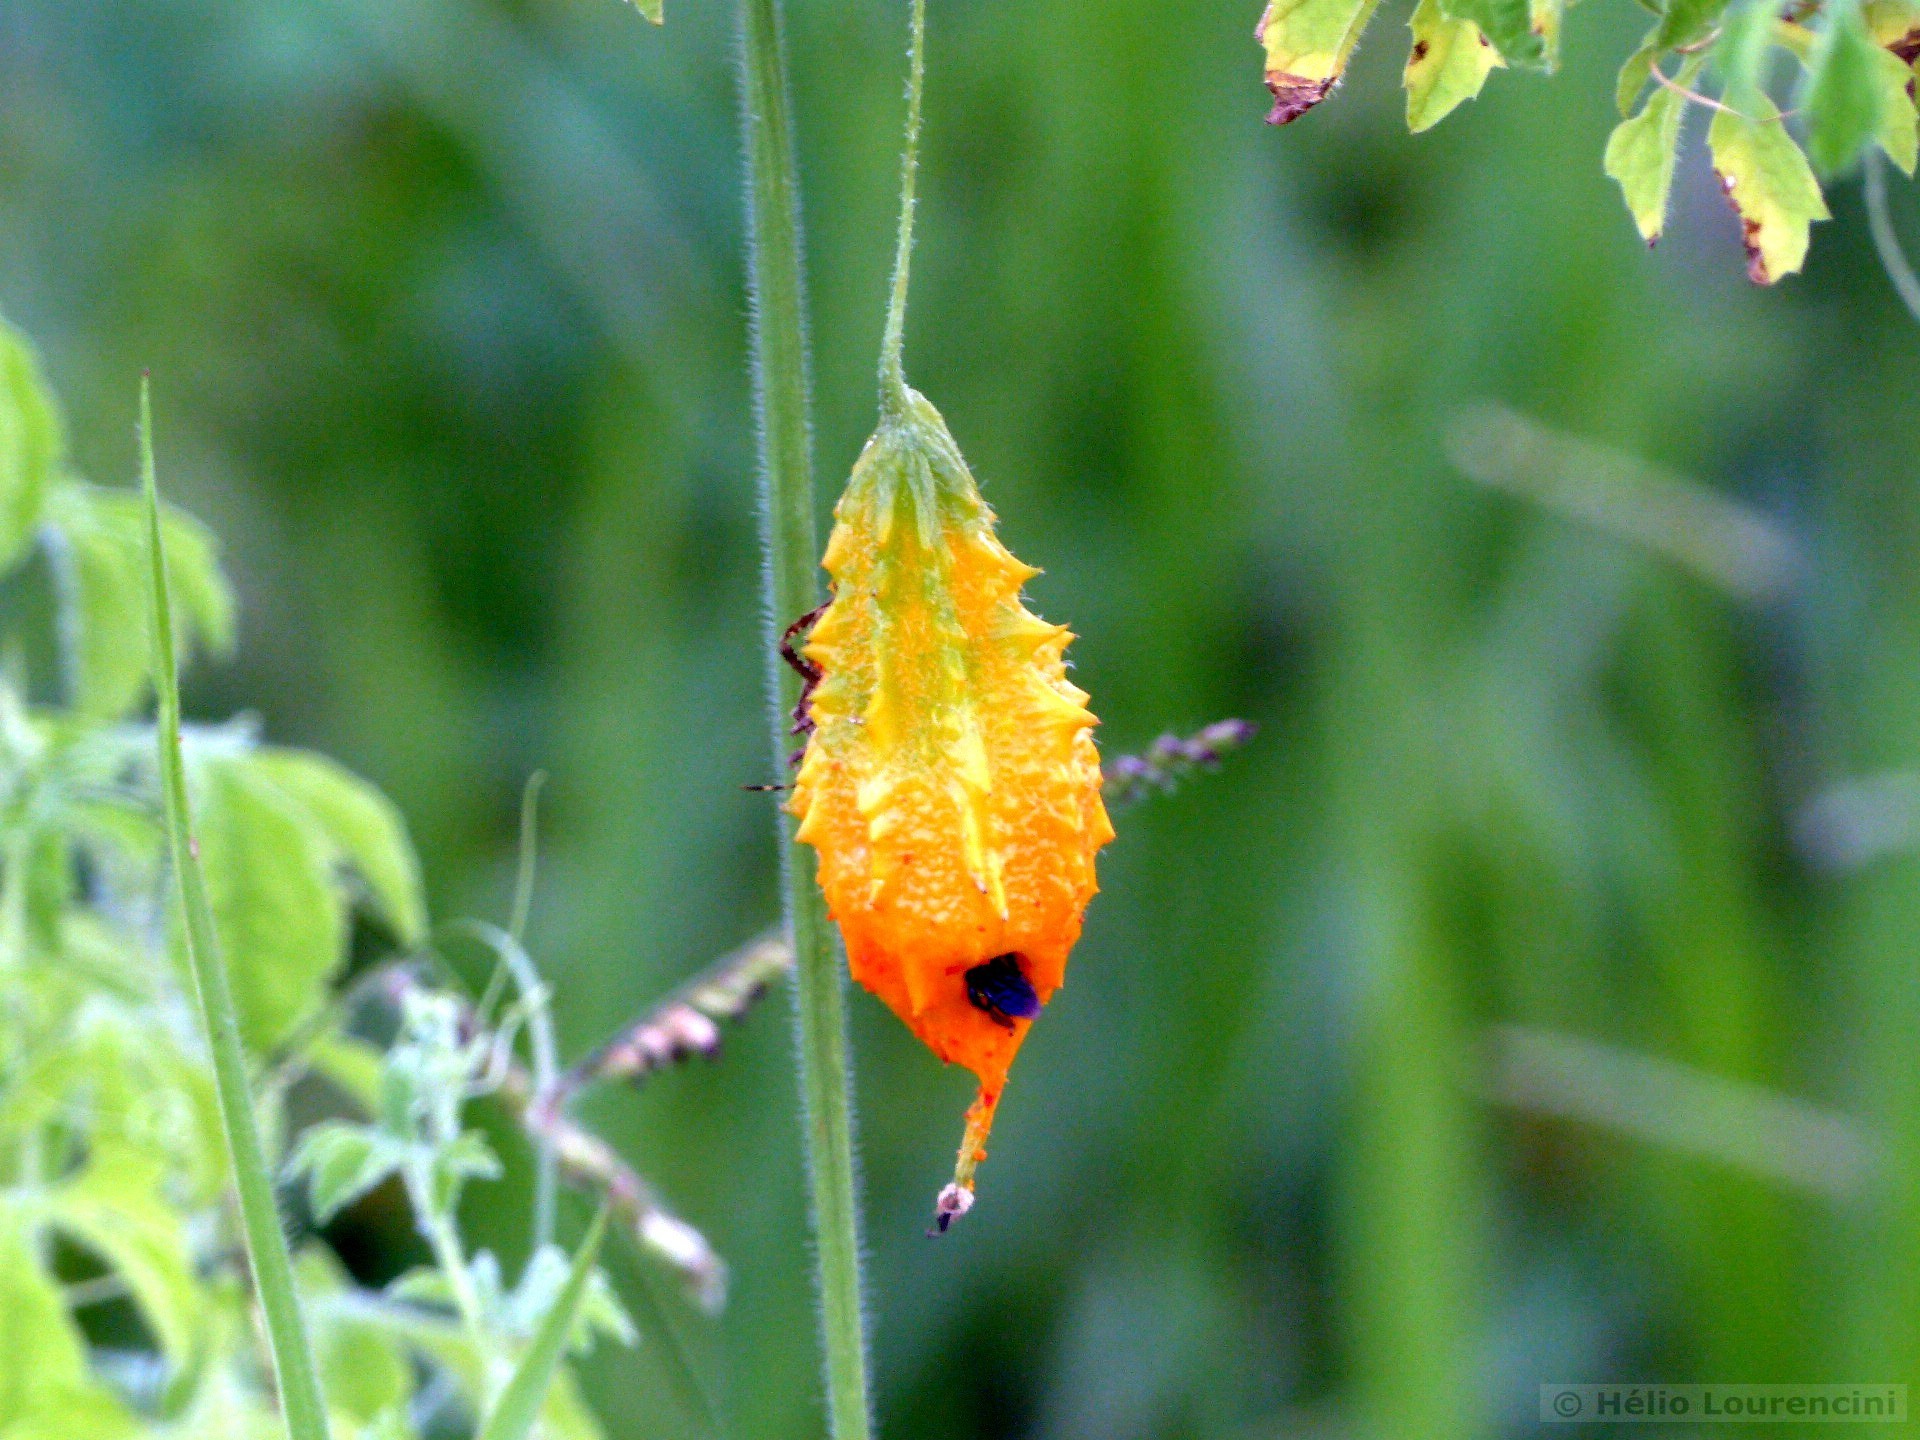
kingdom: Plantae
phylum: Tracheophyta
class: Magnoliopsida
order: Cucurbitales
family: Cucurbitaceae
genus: Momordica
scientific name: Momordica charantia
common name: Balsampear
